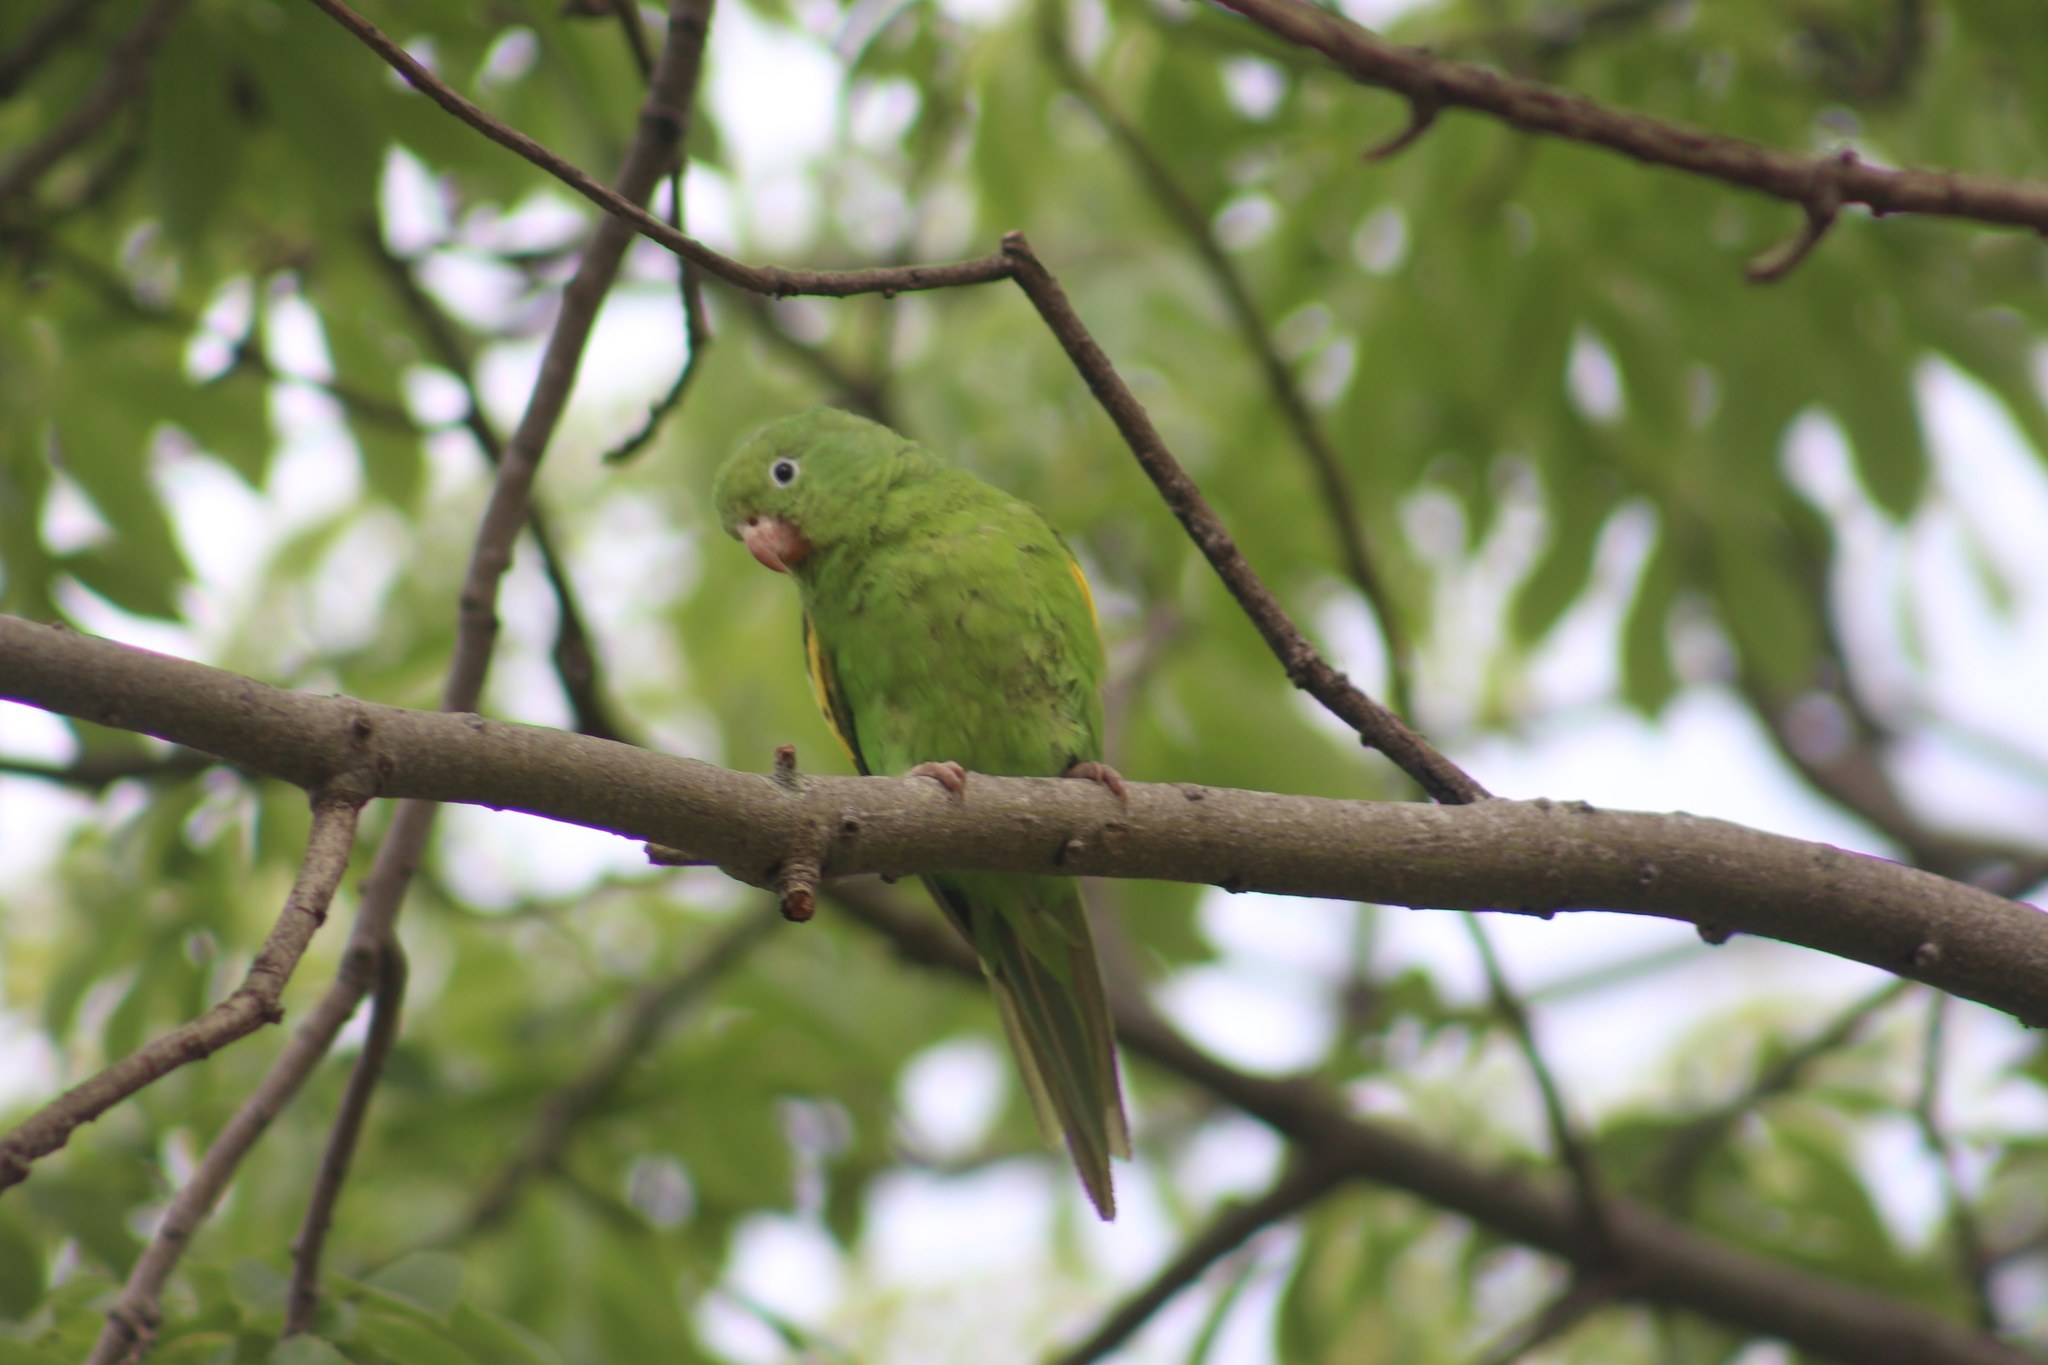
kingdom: Animalia
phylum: Chordata
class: Aves
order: Psittaciformes
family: Psittacidae
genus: Brotogeris
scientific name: Brotogeris chiriri
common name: Yellow-chevroned parakeet
